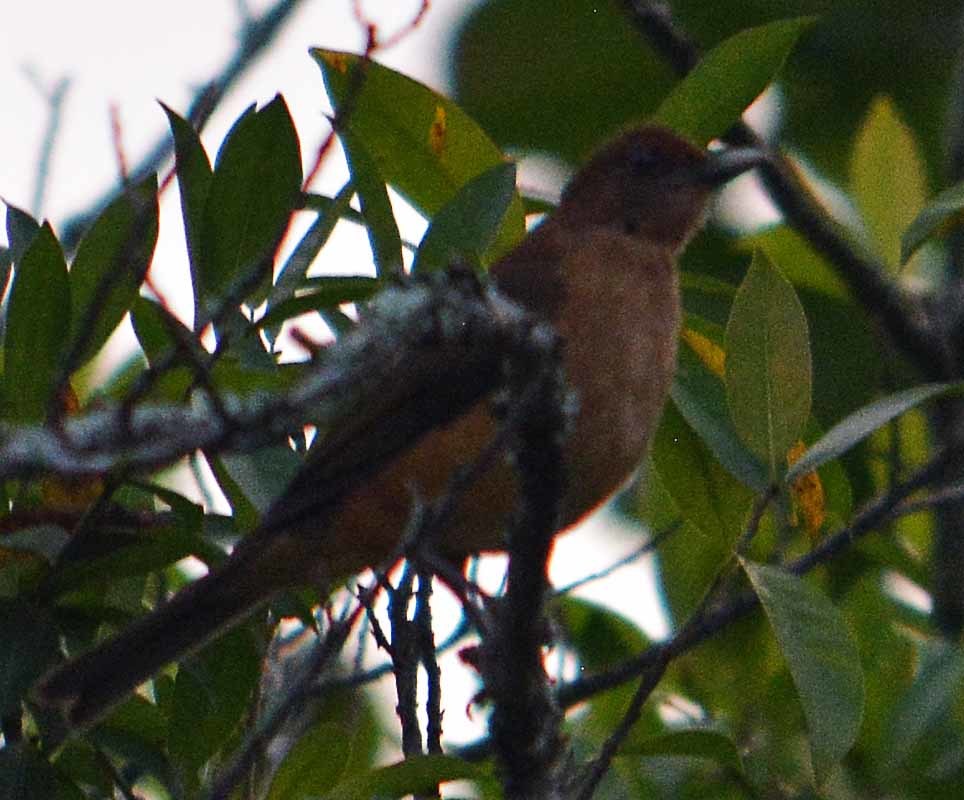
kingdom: Animalia
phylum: Chordata
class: Aves
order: Passeriformes
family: Turdidae
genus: Turdus
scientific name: Turdus grayi
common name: Clay-colored thrush
